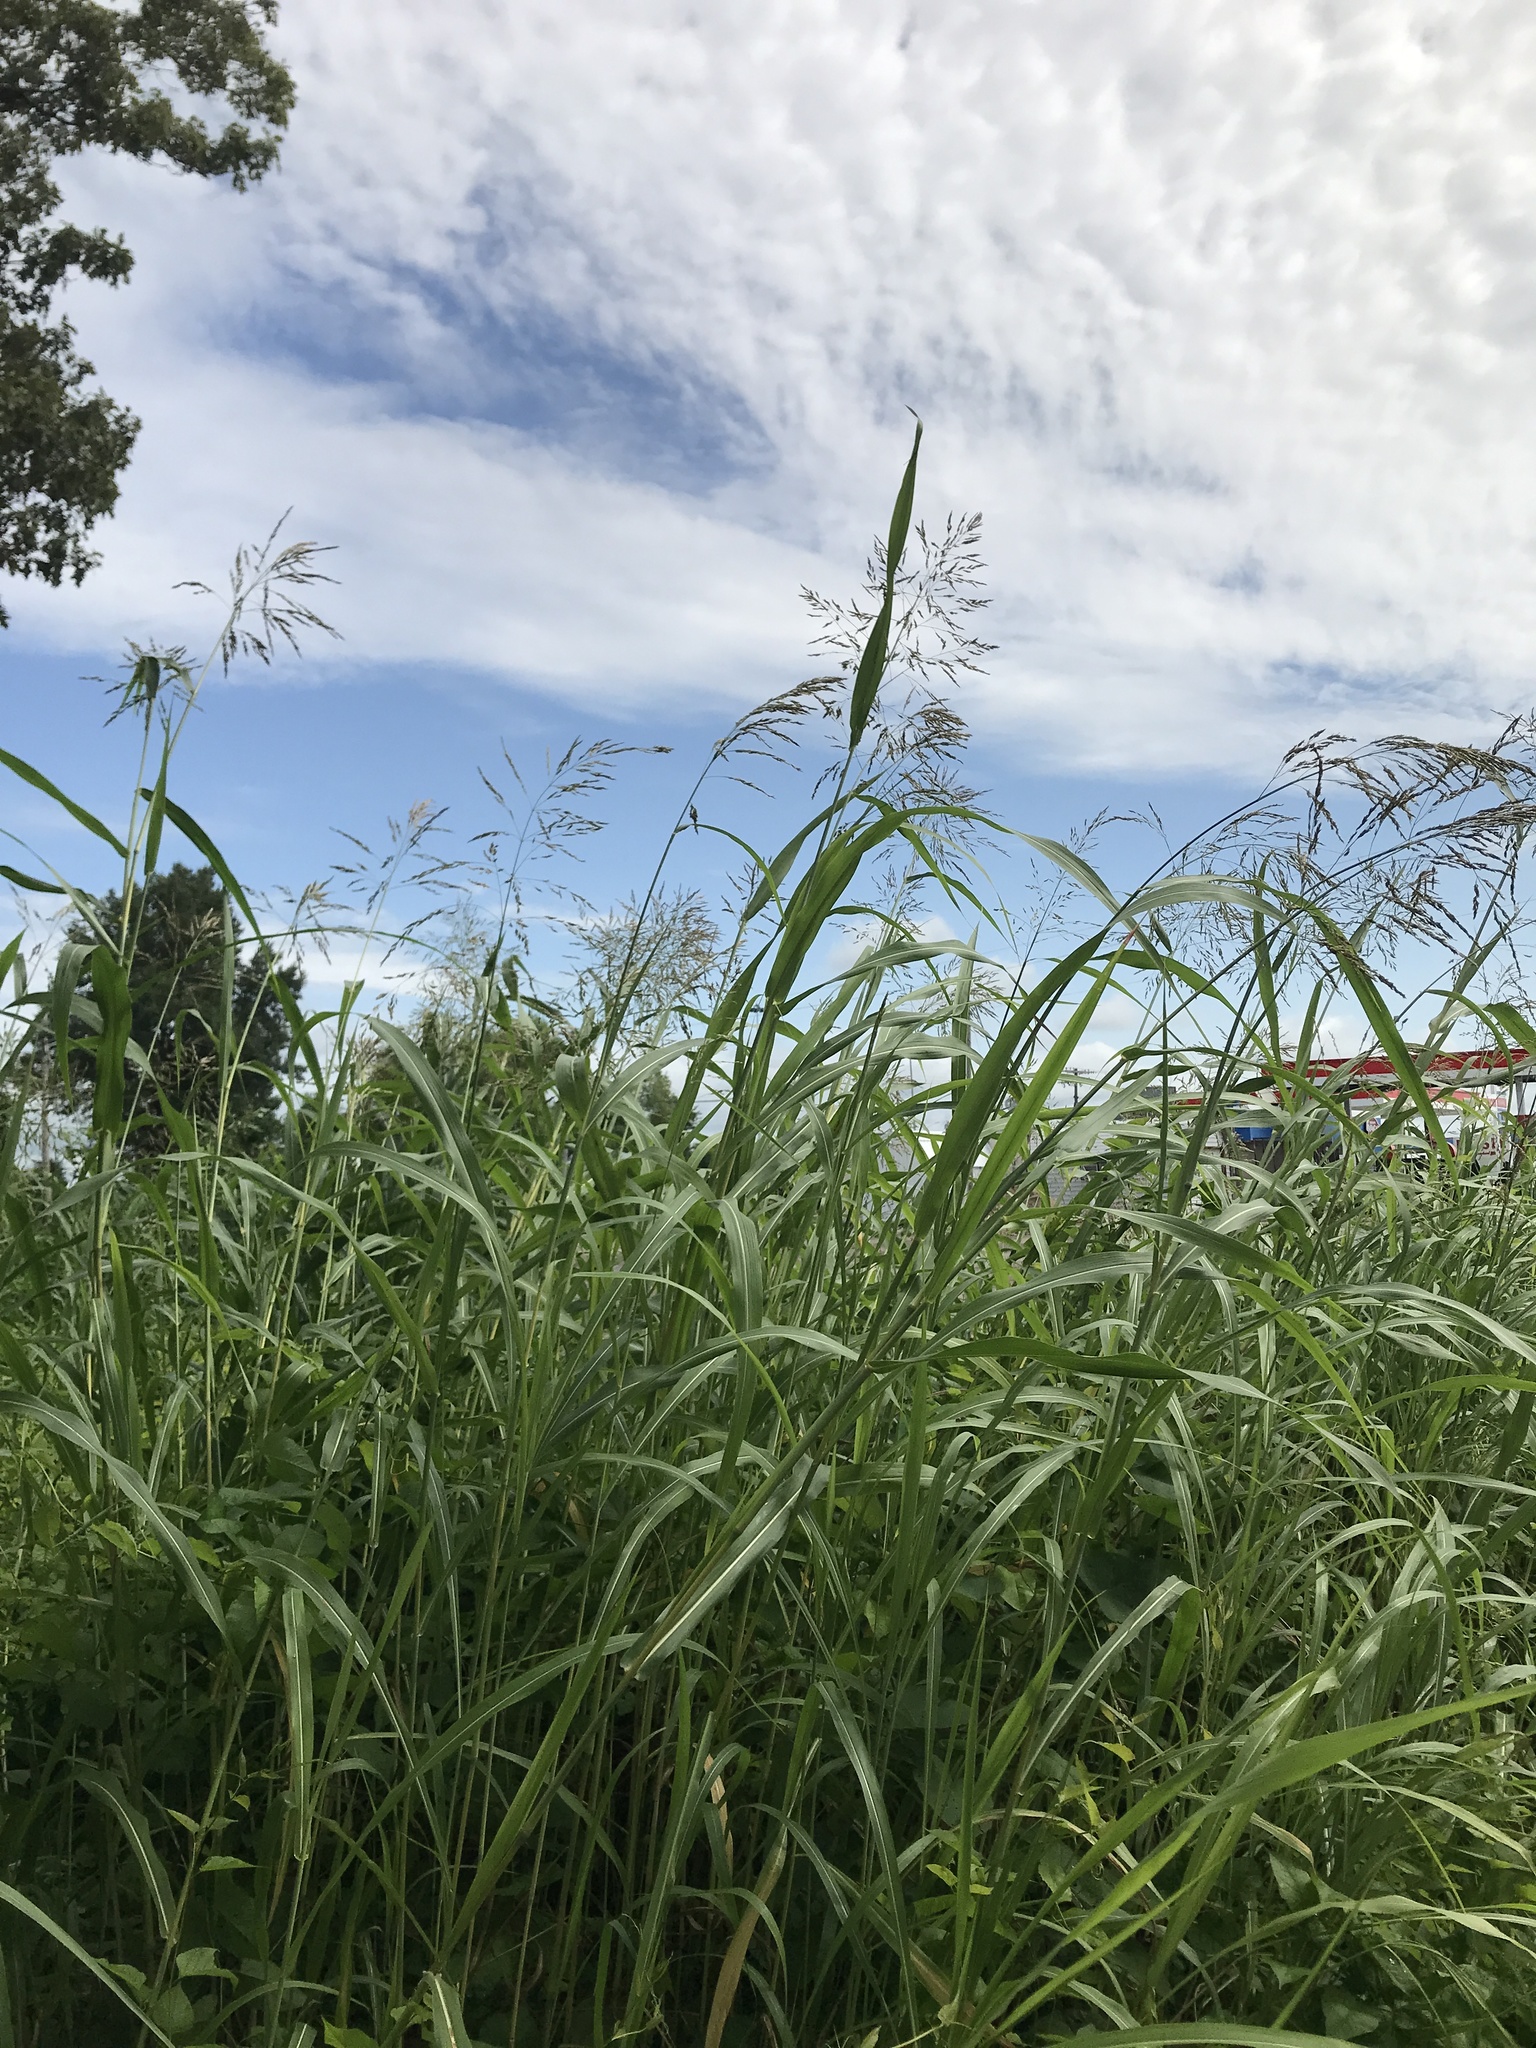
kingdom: Plantae
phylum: Tracheophyta
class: Liliopsida
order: Poales
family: Poaceae
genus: Sorghum
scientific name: Sorghum halepense
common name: Johnson-grass
